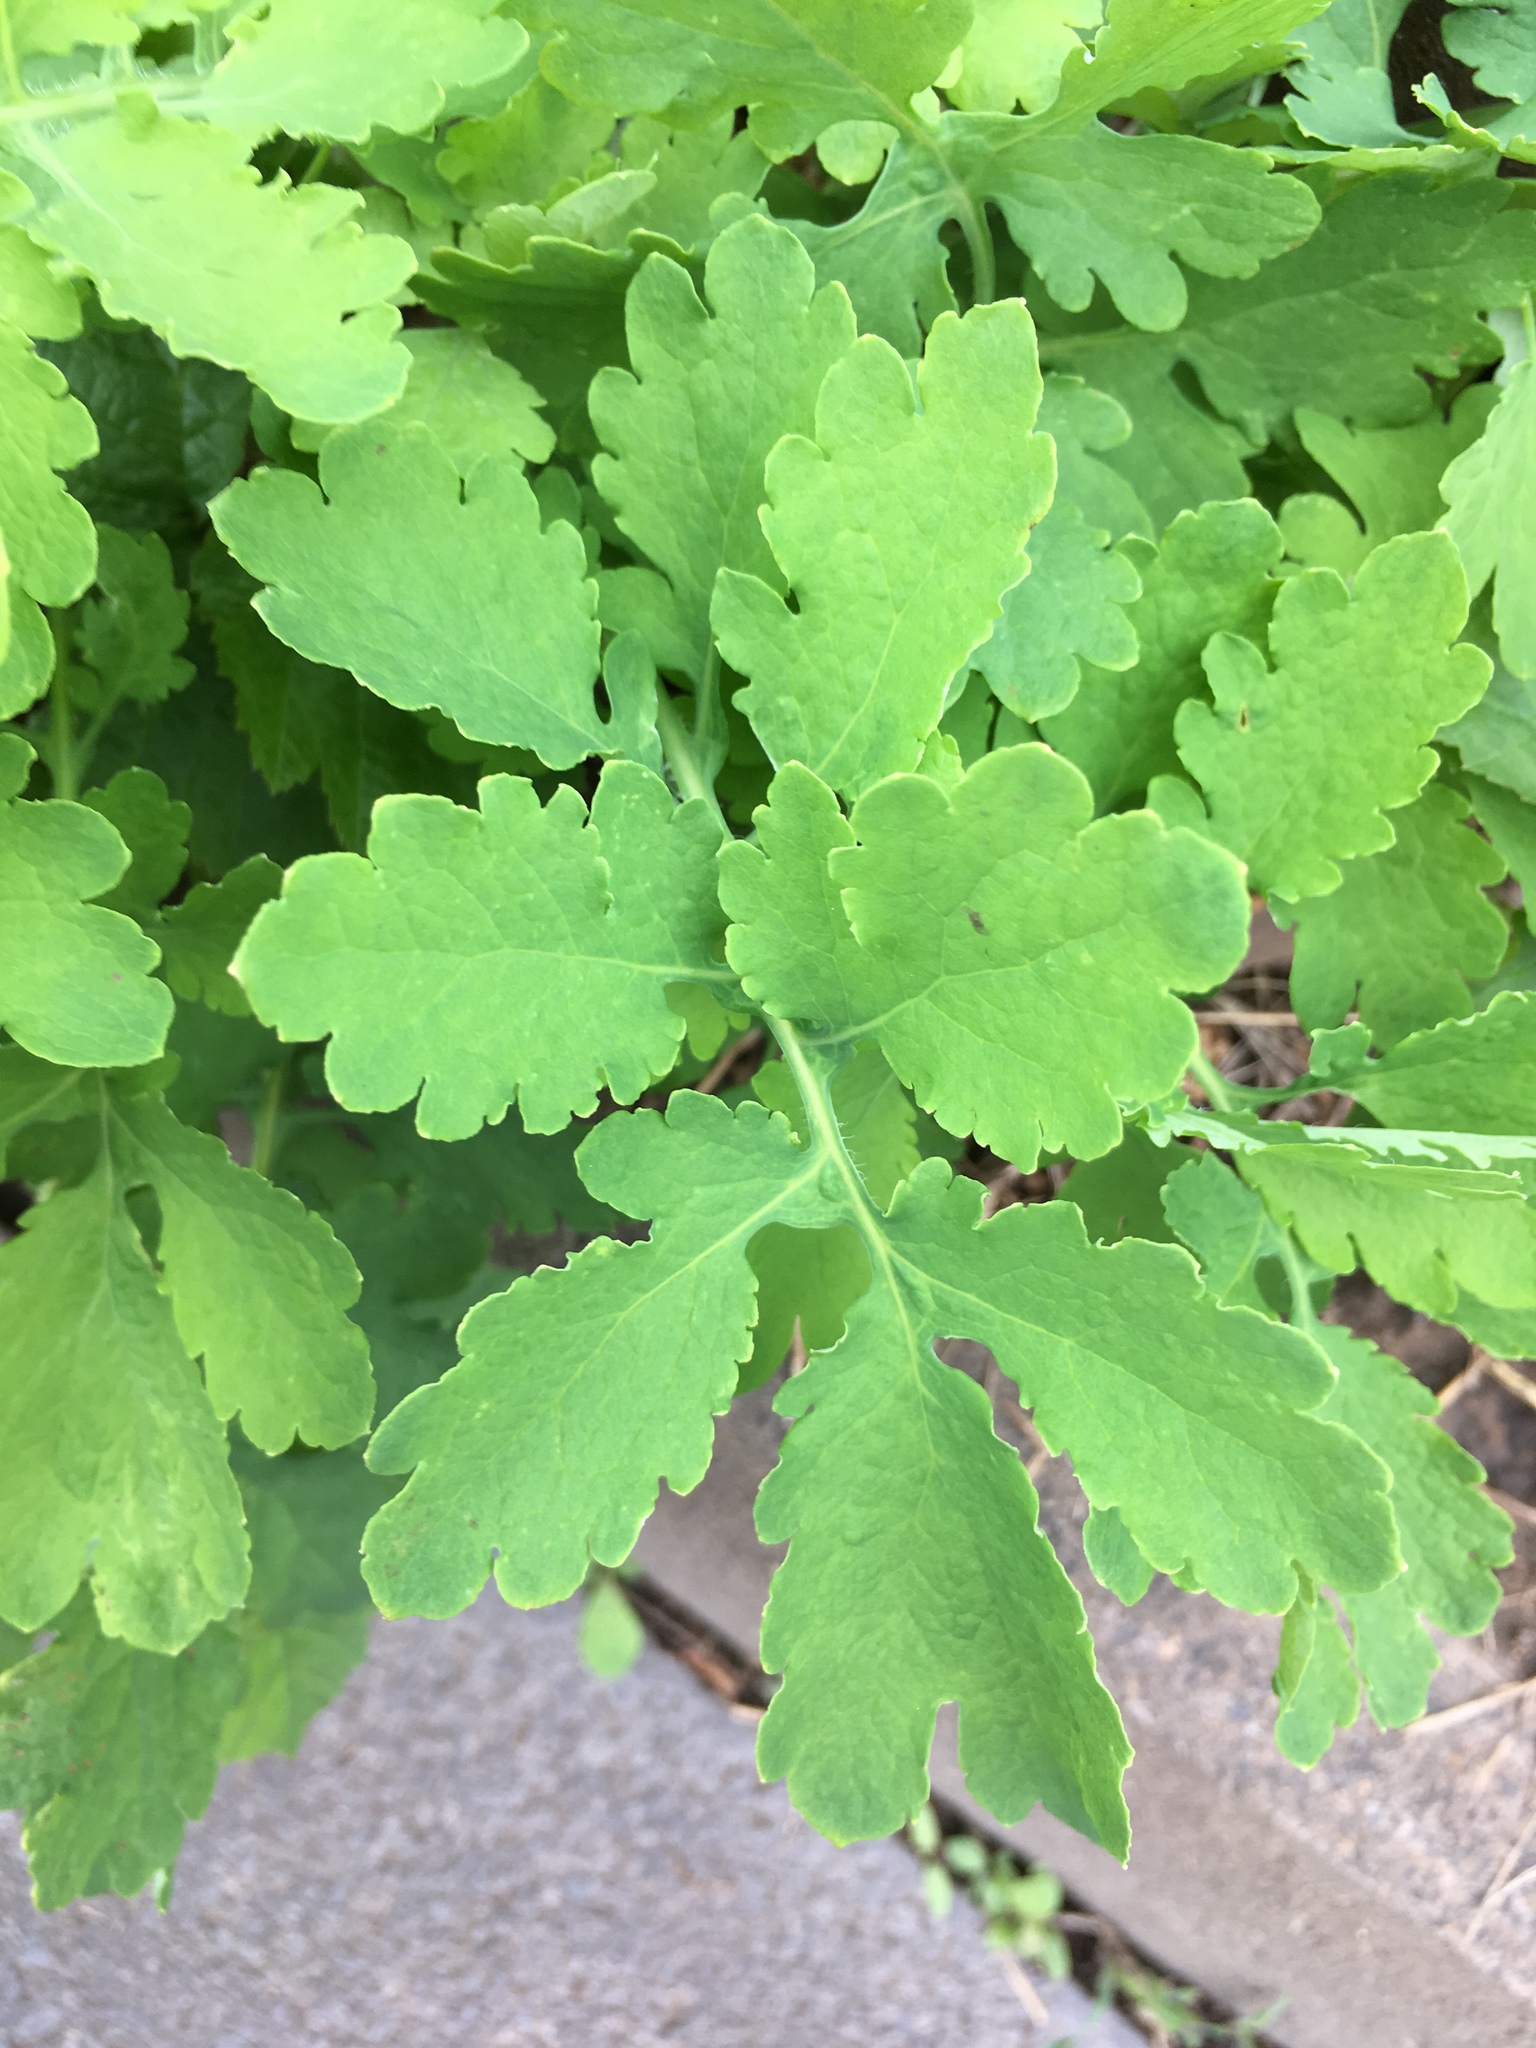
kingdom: Plantae
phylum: Tracheophyta
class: Magnoliopsida
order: Ranunculales
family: Papaveraceae
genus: Chelidonium
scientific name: Chelidonium majus
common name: Greater celandine
